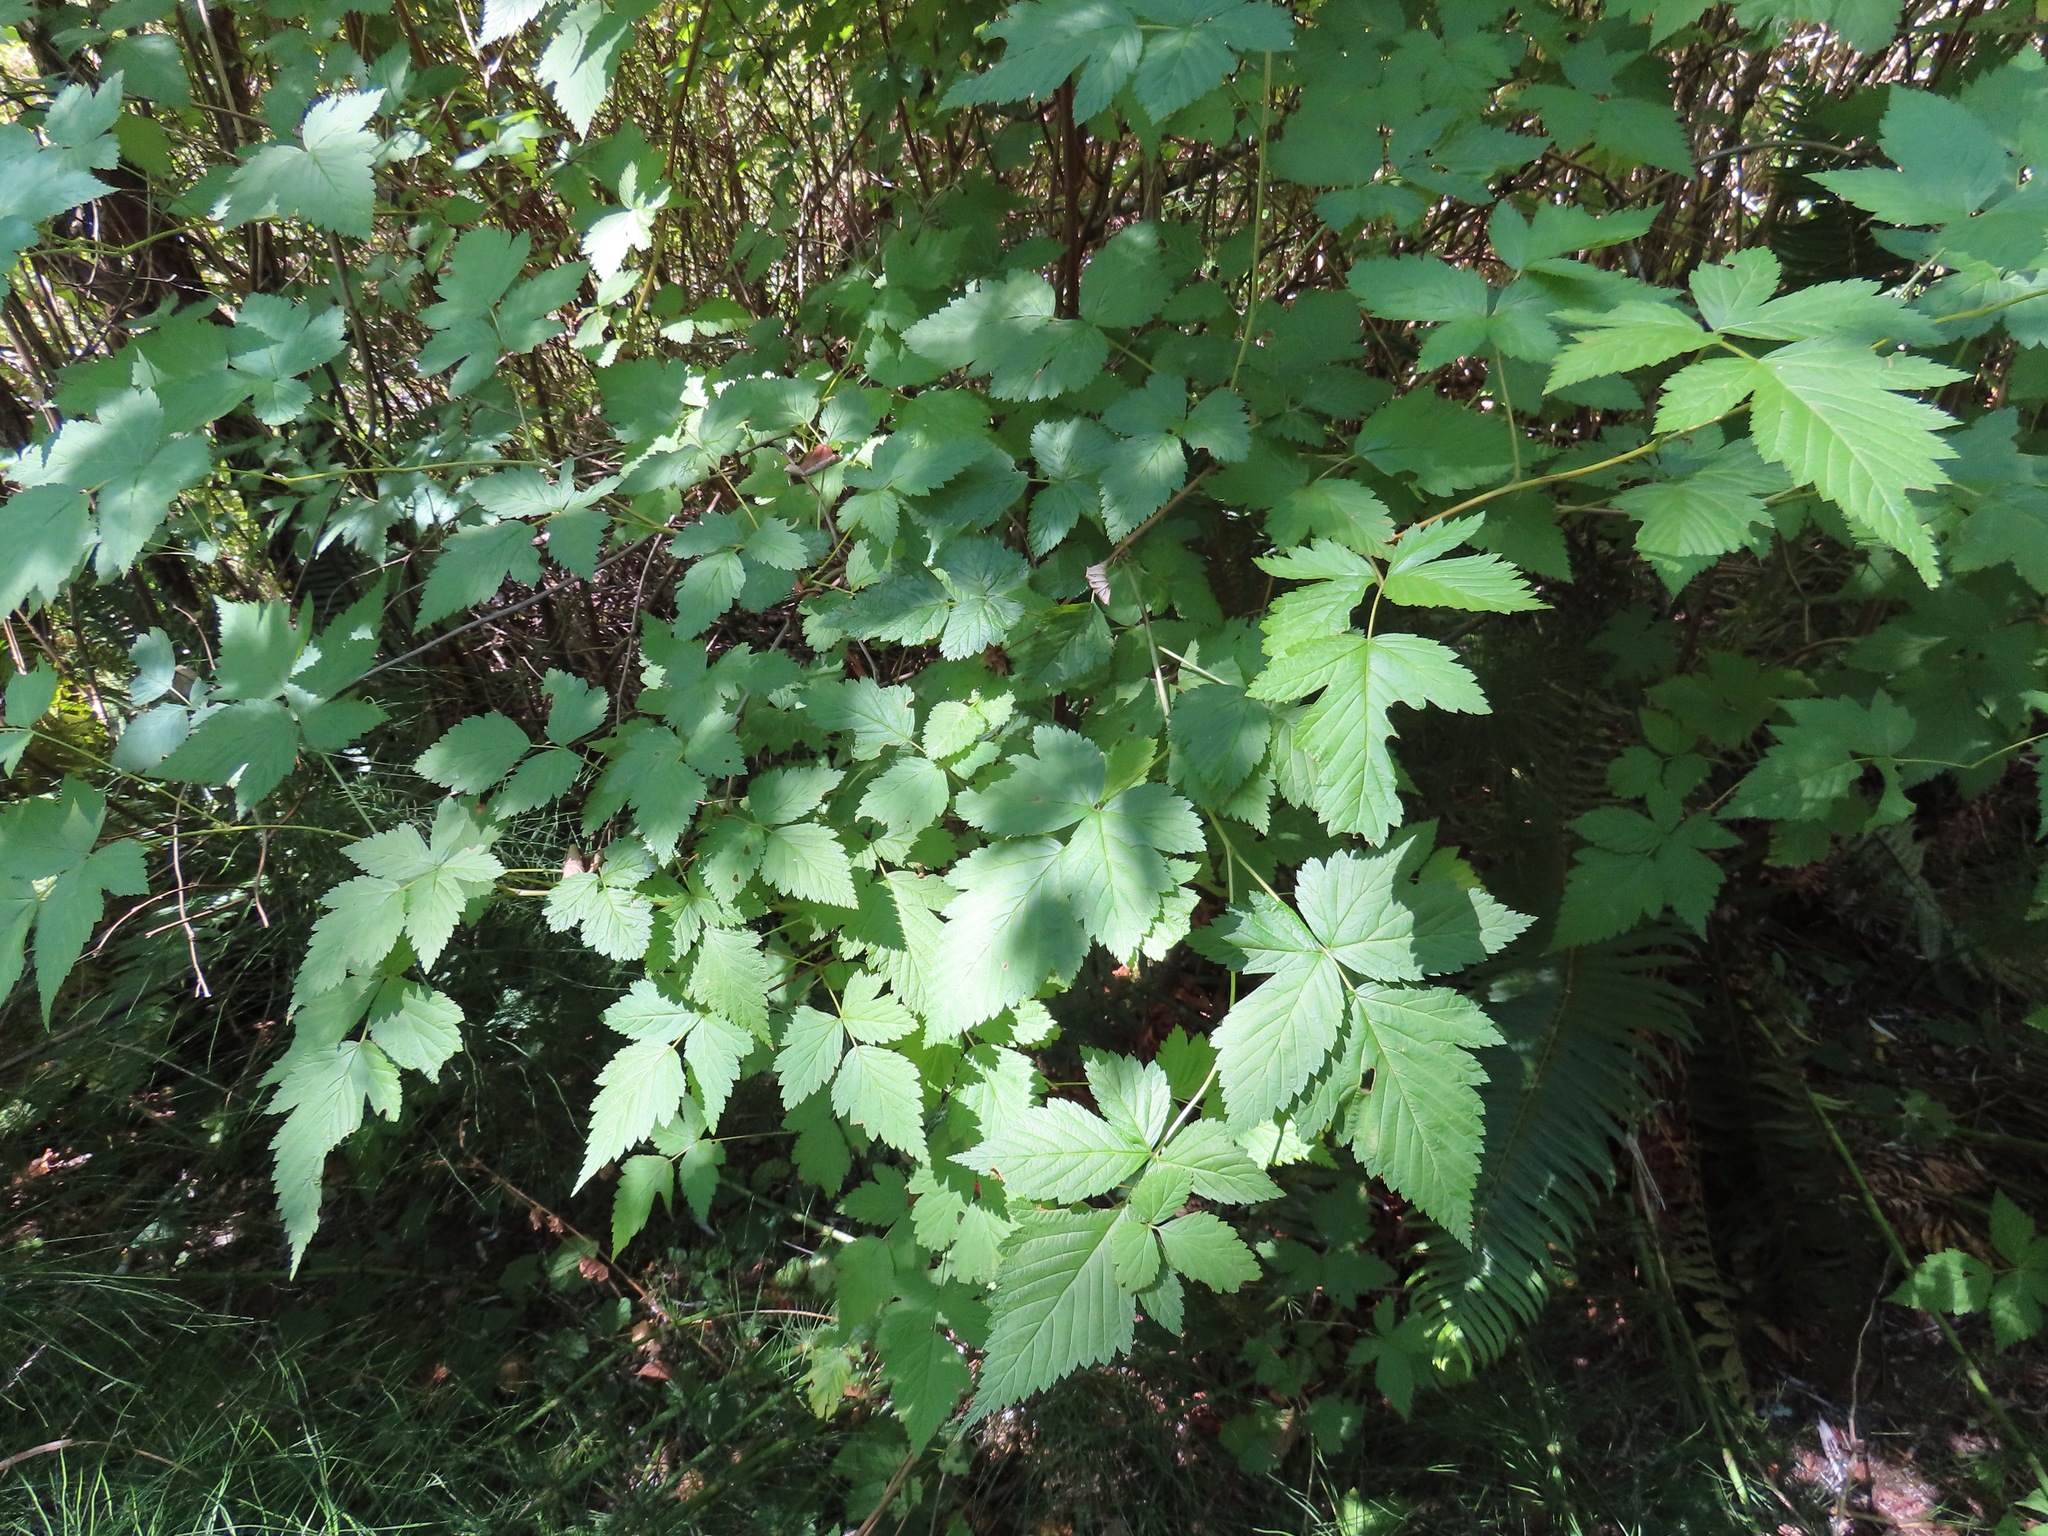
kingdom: Plantae
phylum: Tracheophyta
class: Magnoliopsida
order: Rosales
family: Rosaceae
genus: Rubus
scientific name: Rubus spectabilis
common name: Salmonberry
